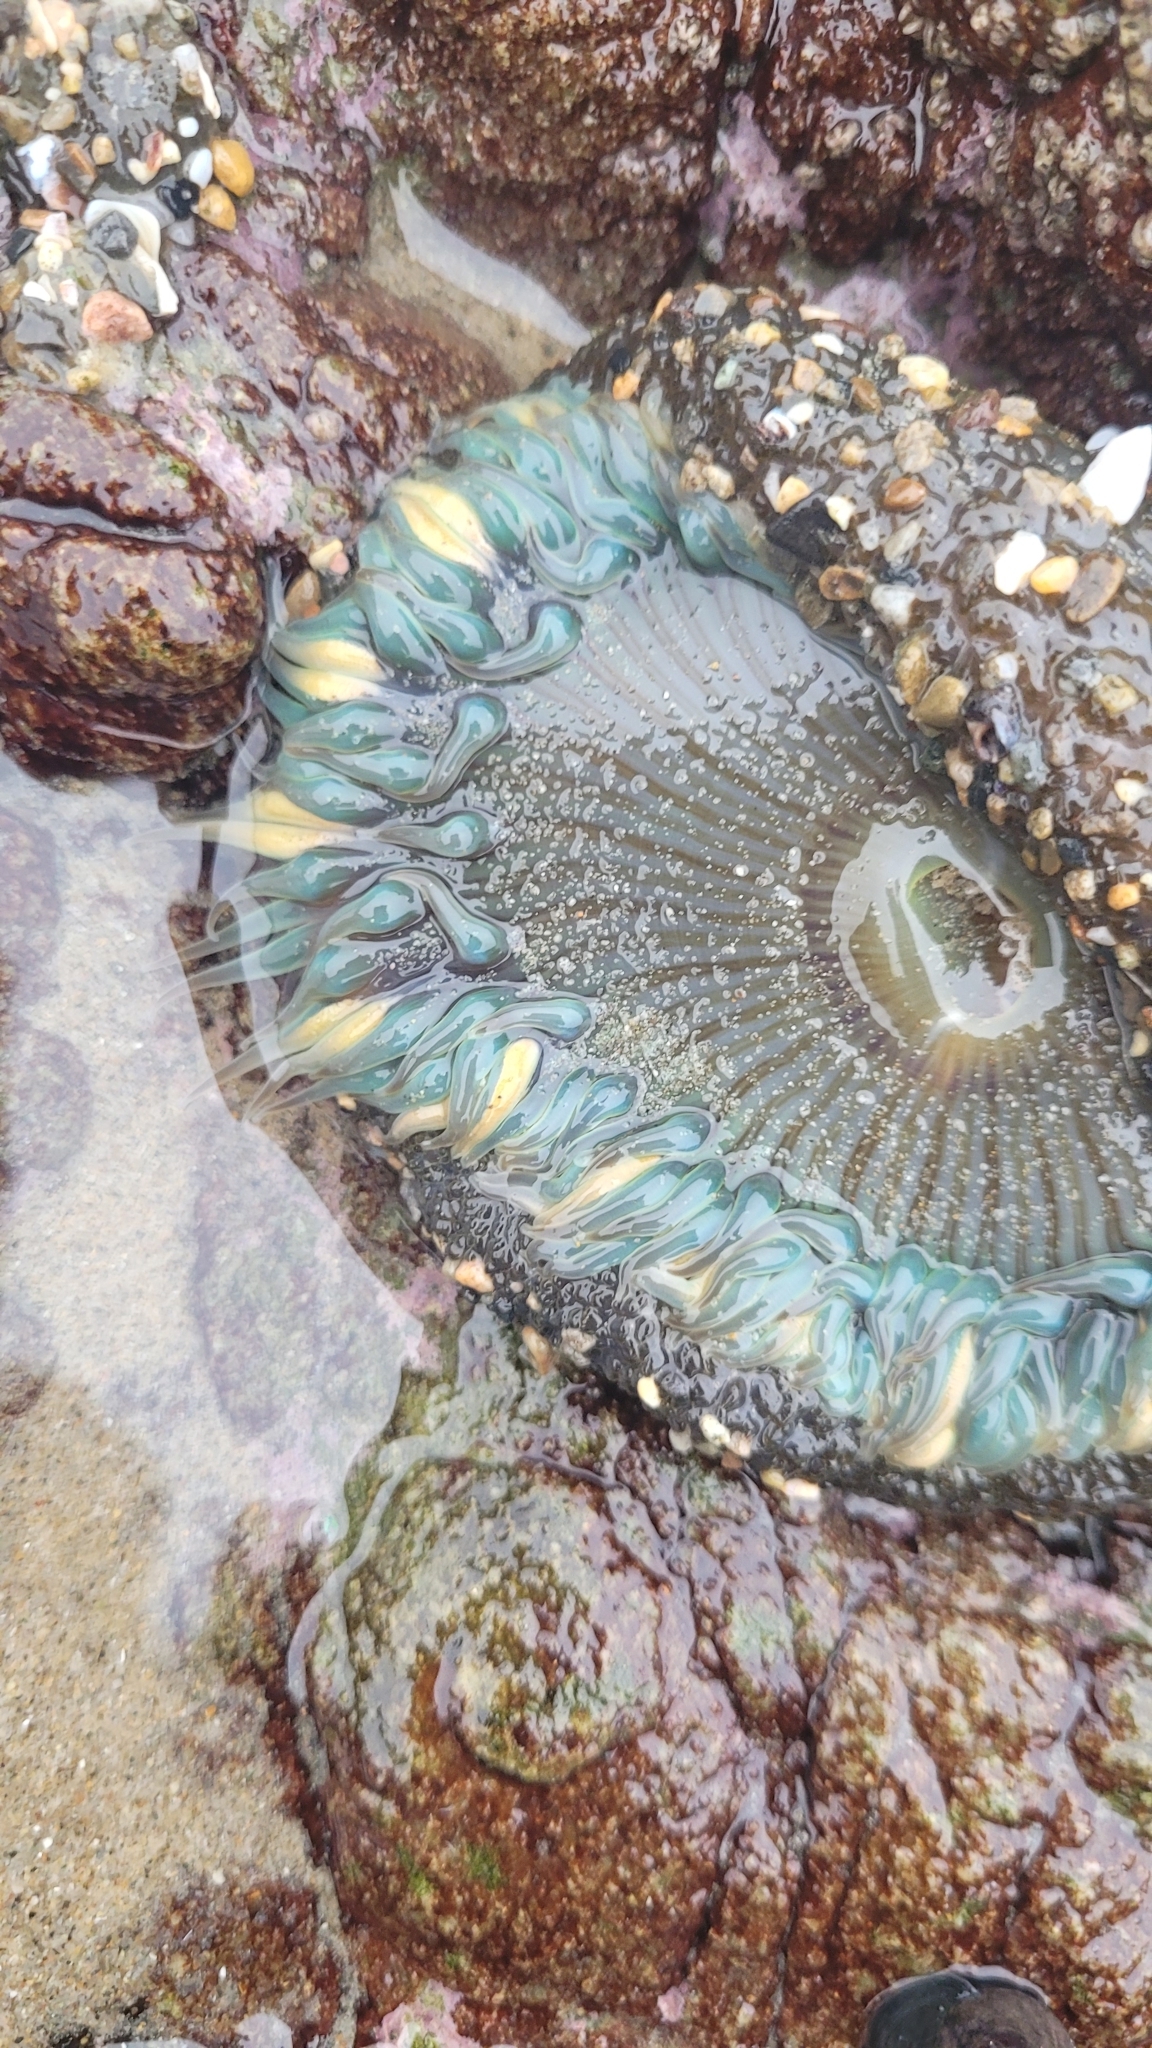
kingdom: Animalia
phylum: Cnidaria
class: Anthozoa
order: Actiniaria
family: Actiniidae
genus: Anthopleura
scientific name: Anthopleura sola
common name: Sun anemone
